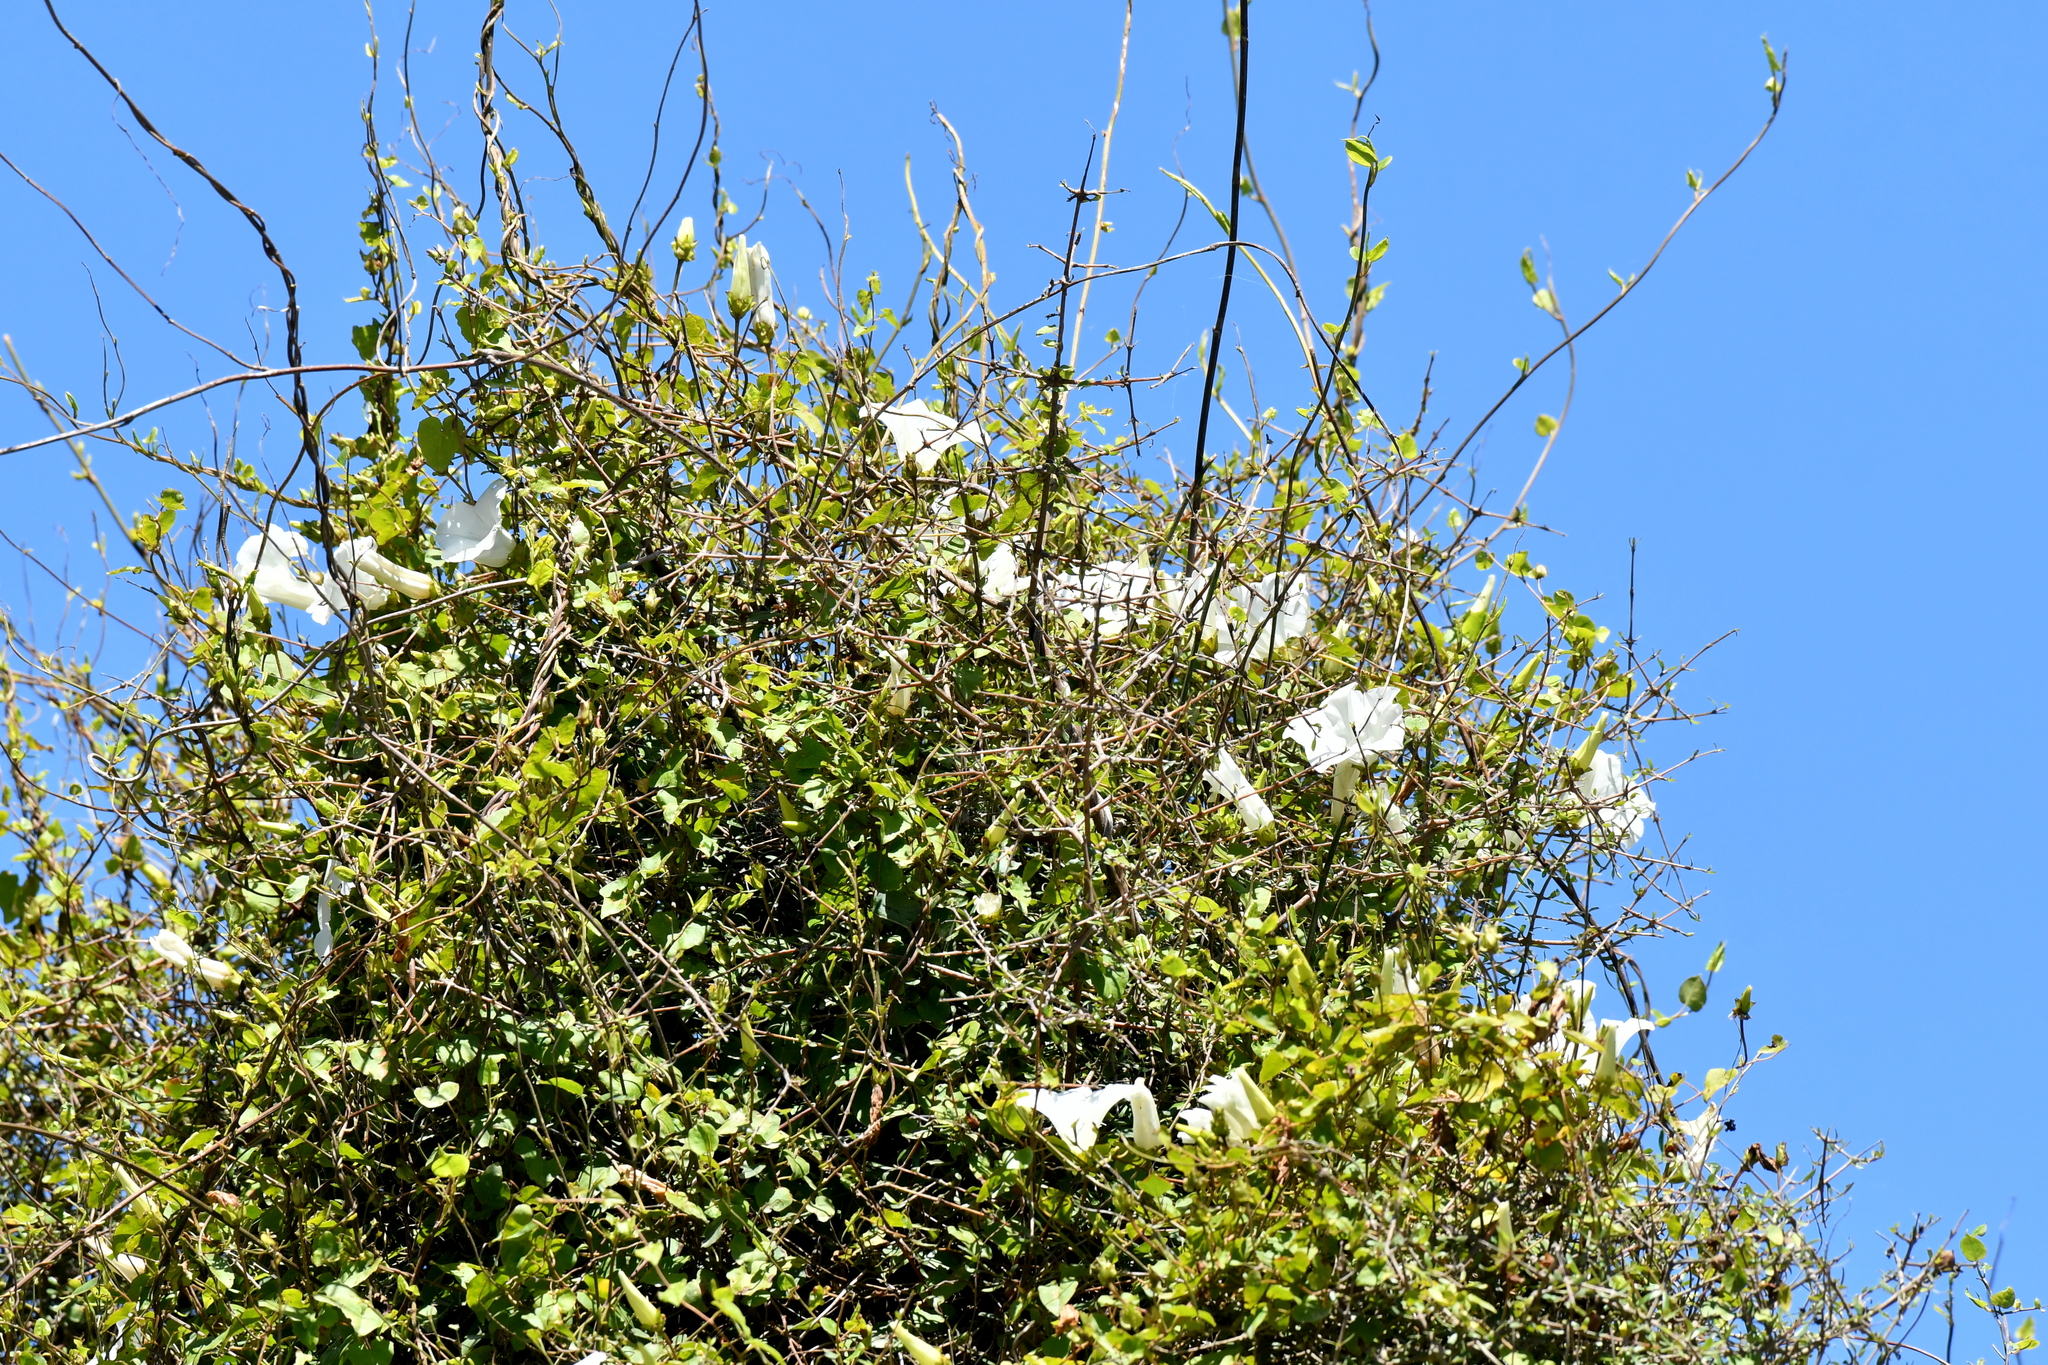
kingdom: Plantae
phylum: Tracheophyta
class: Magnoliopsida
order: Solanales
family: Convolvulaceae
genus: Calystegia
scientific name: Calystegia tuguriorum
